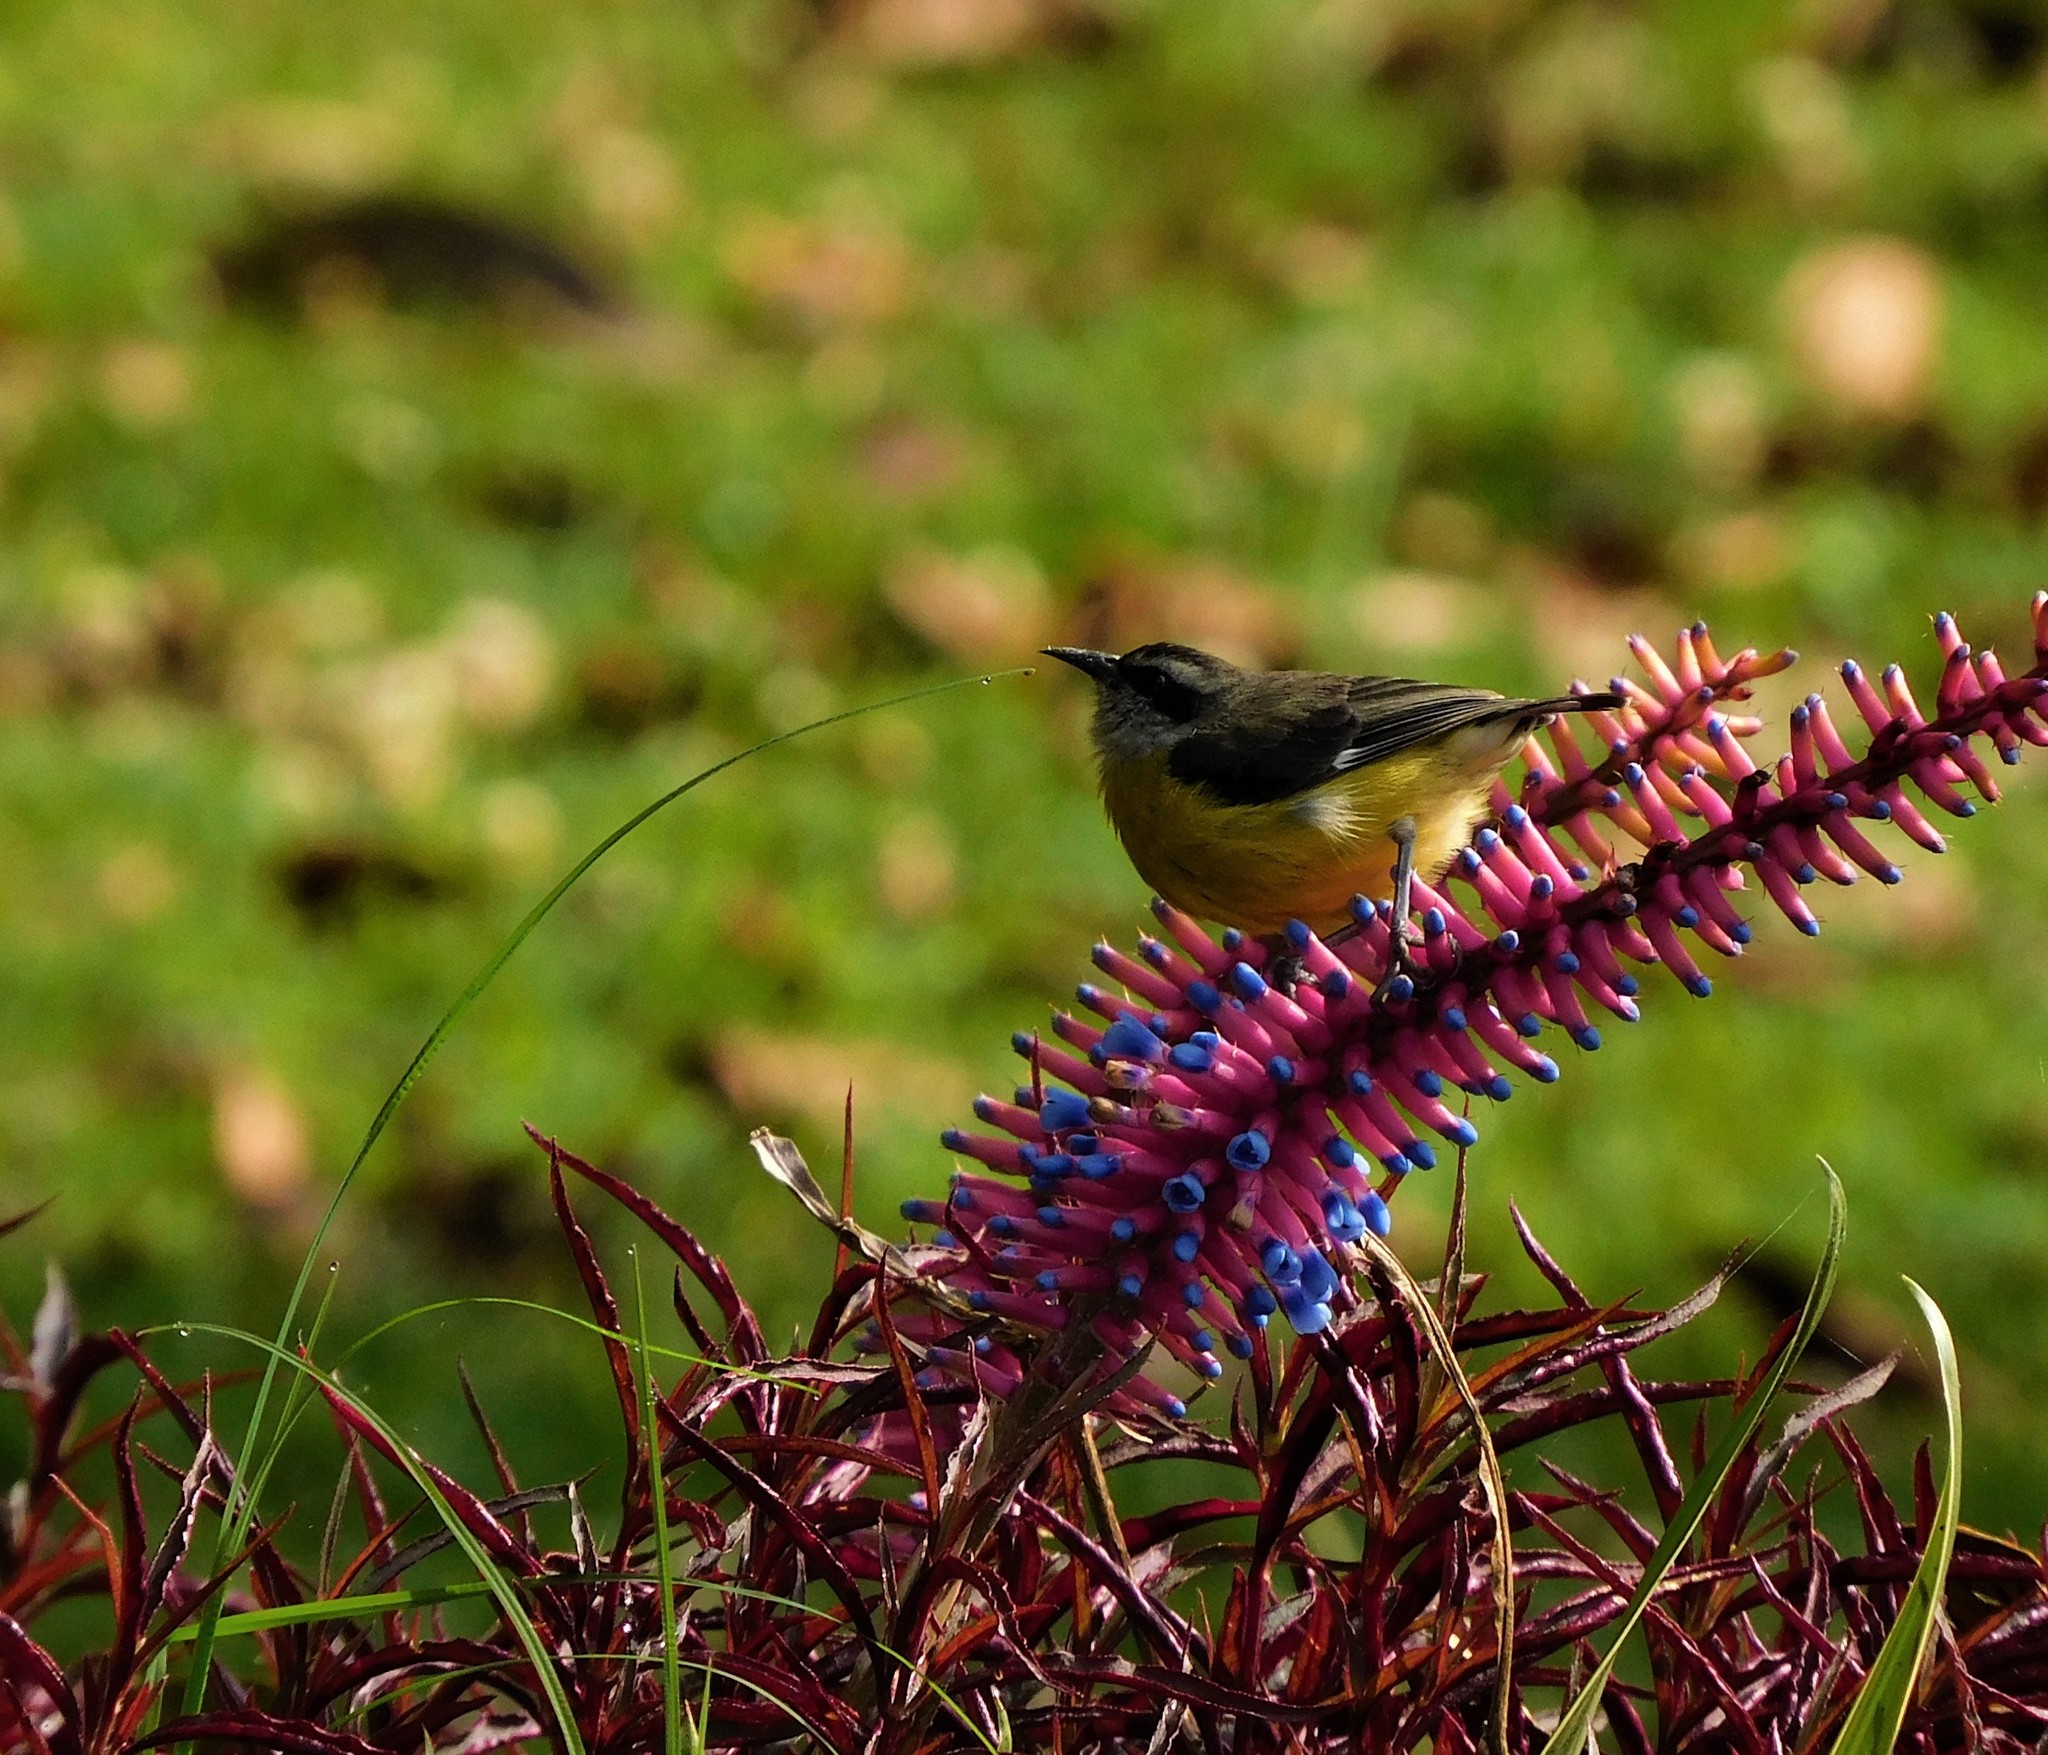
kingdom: Animalia
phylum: Chordata
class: Aves
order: Passeriformes
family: Thraupidae
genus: Coereba
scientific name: Coereba flaveola
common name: Bananaquit
